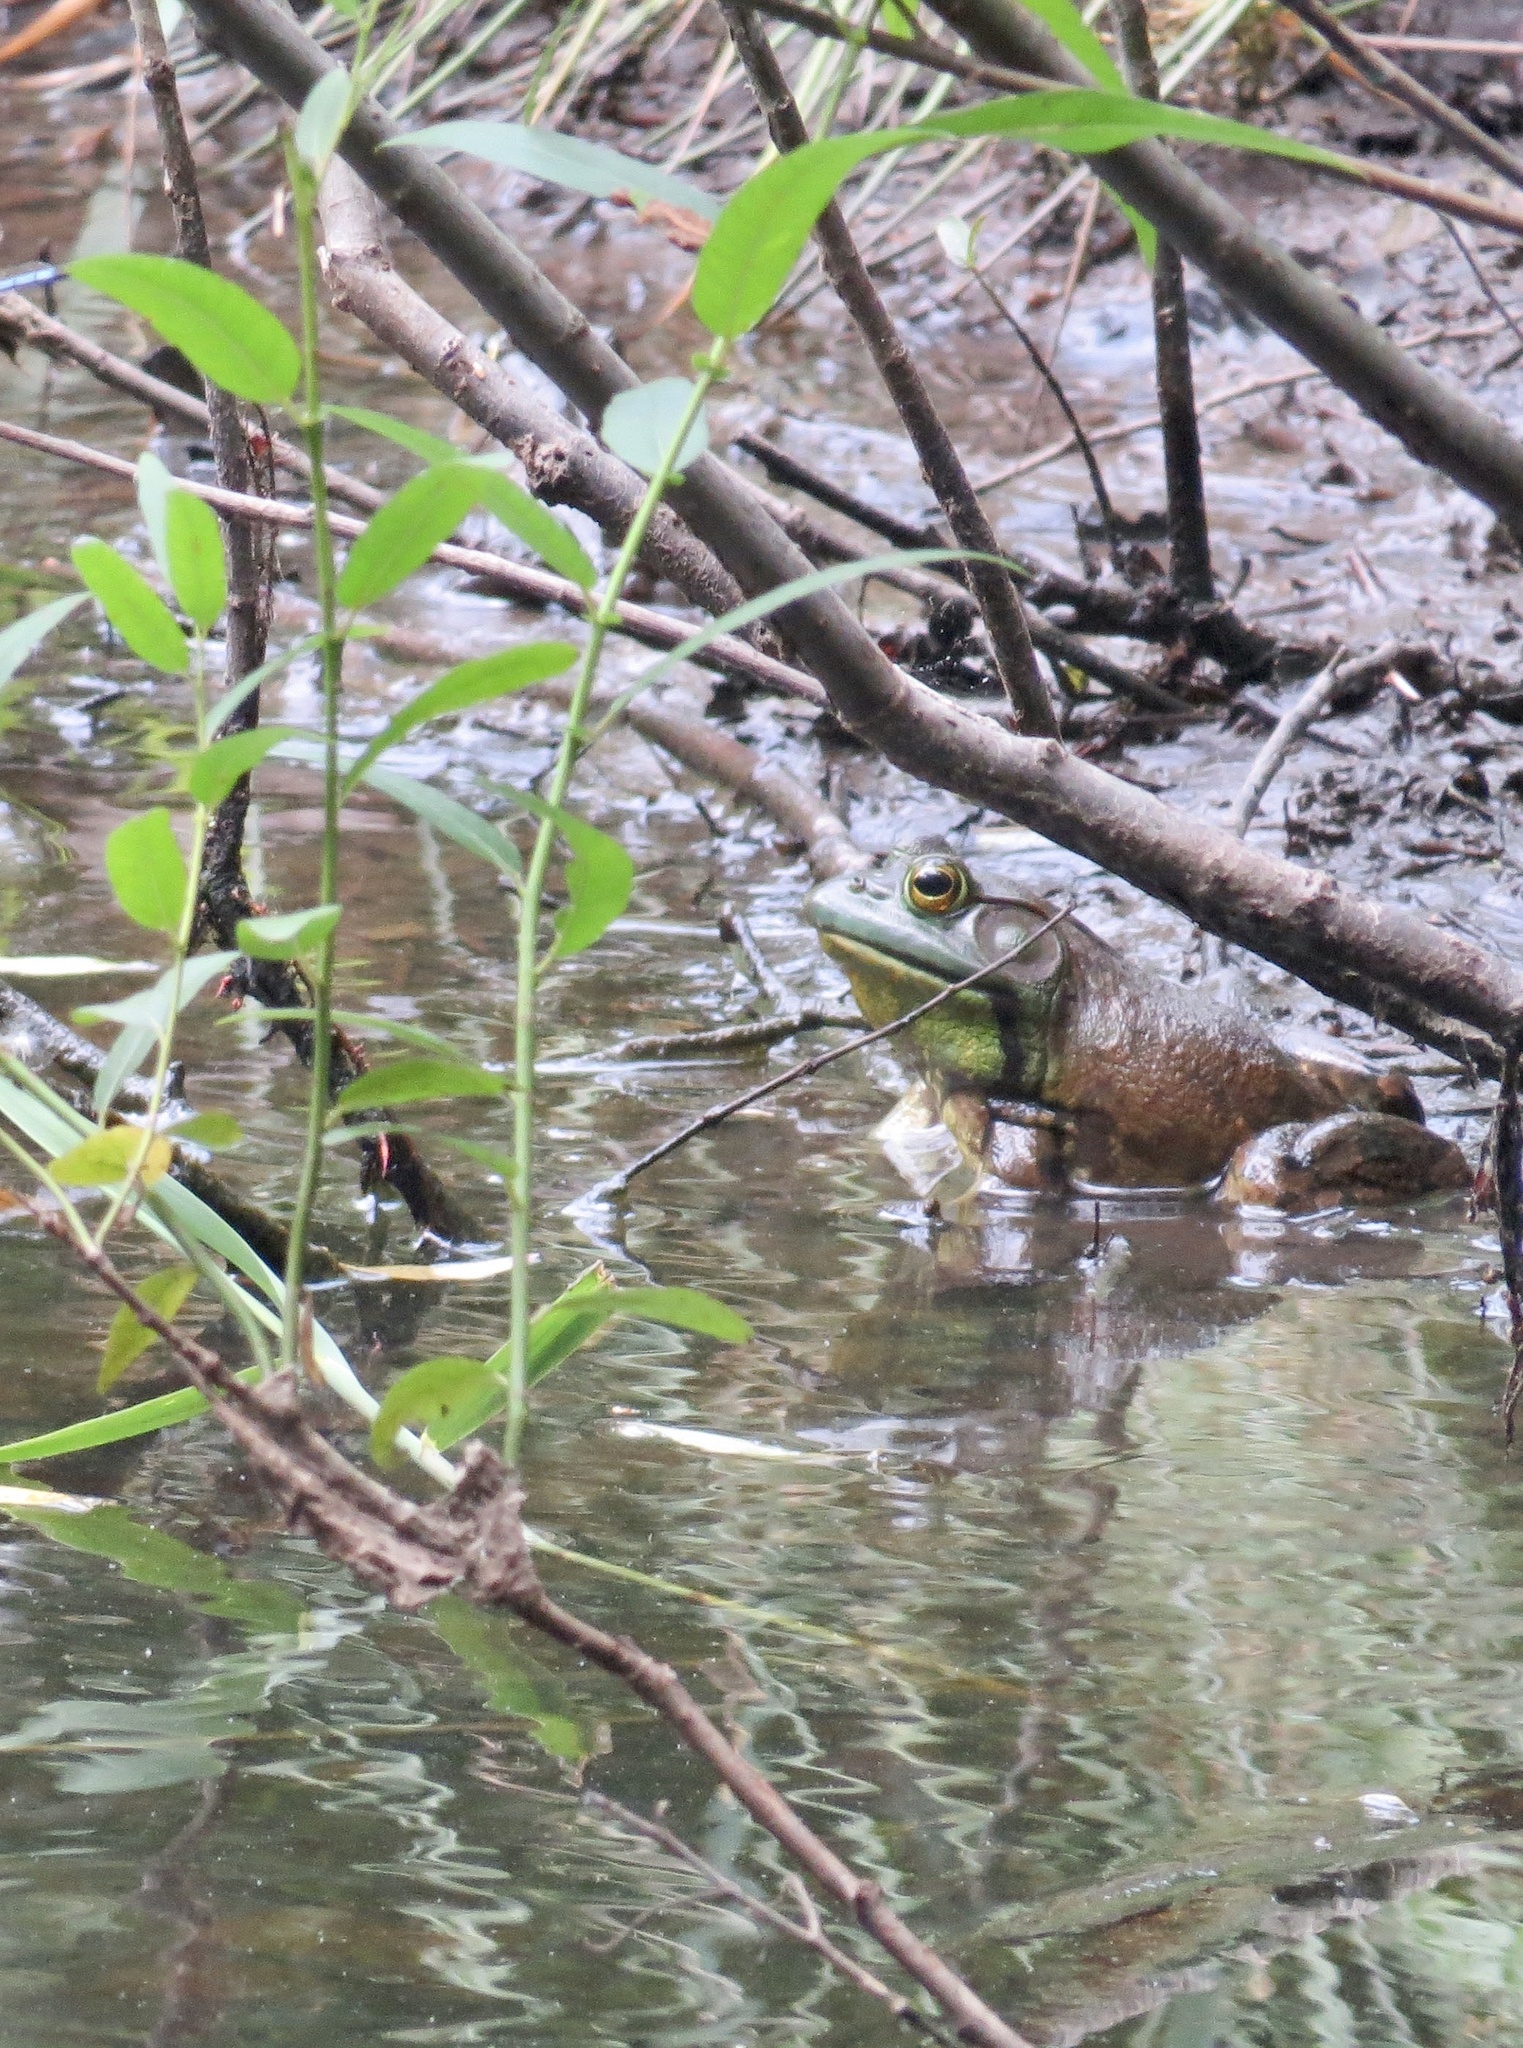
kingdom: Animalia
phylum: Chordata
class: Amphibia
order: Anura
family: Ranidae
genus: Lithobates
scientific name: Lithobates catesbeianus
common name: American bullfrog
